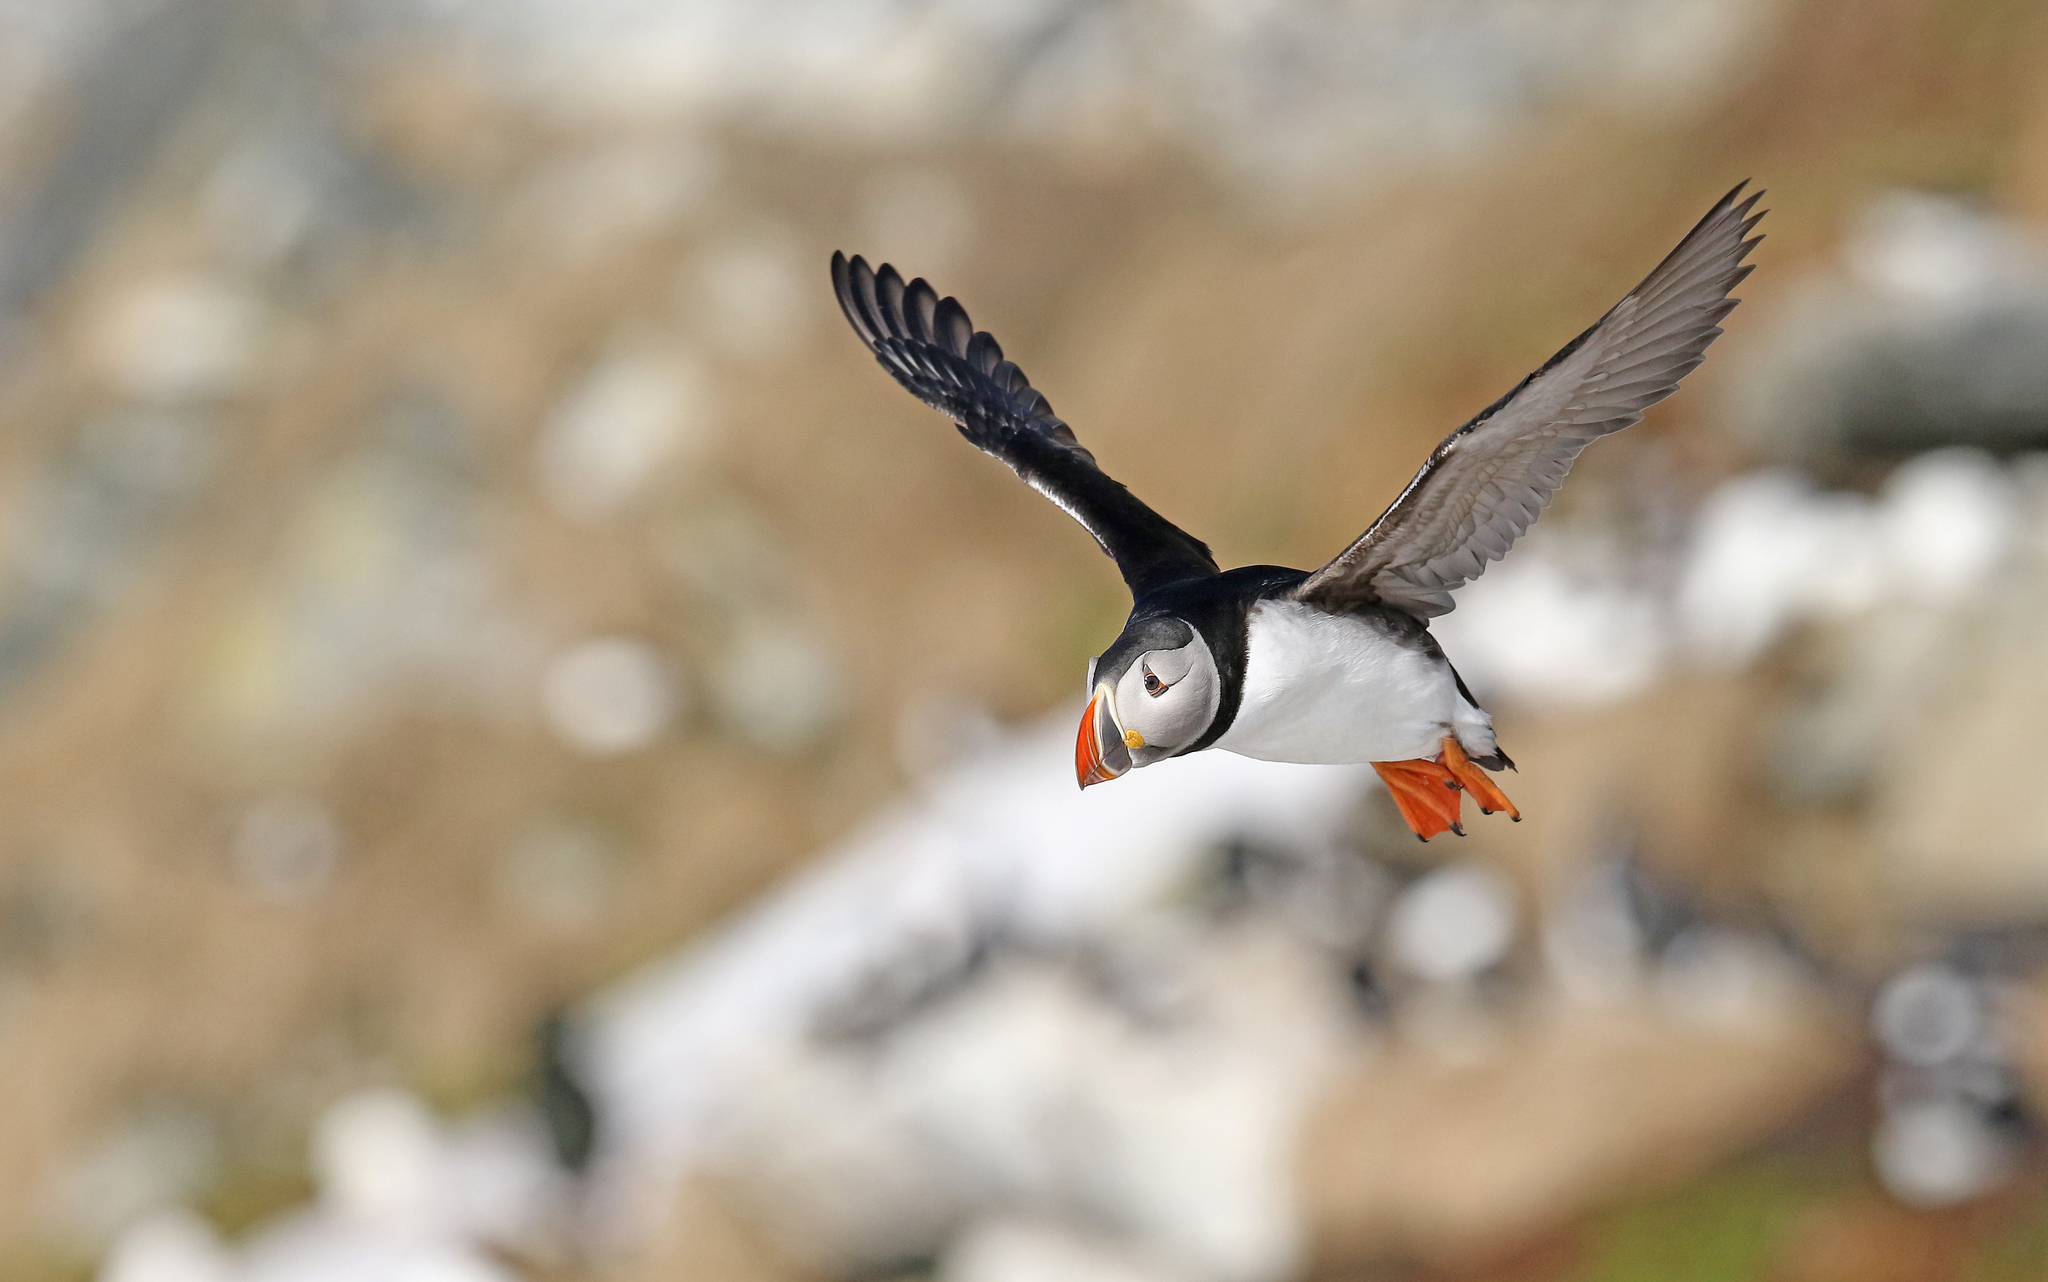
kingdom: Animalia
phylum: Chordata
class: Aves
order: Charadriiformes
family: Alcidae
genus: Fratercula
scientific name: Fratercula arctica
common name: Atlantic puffin
